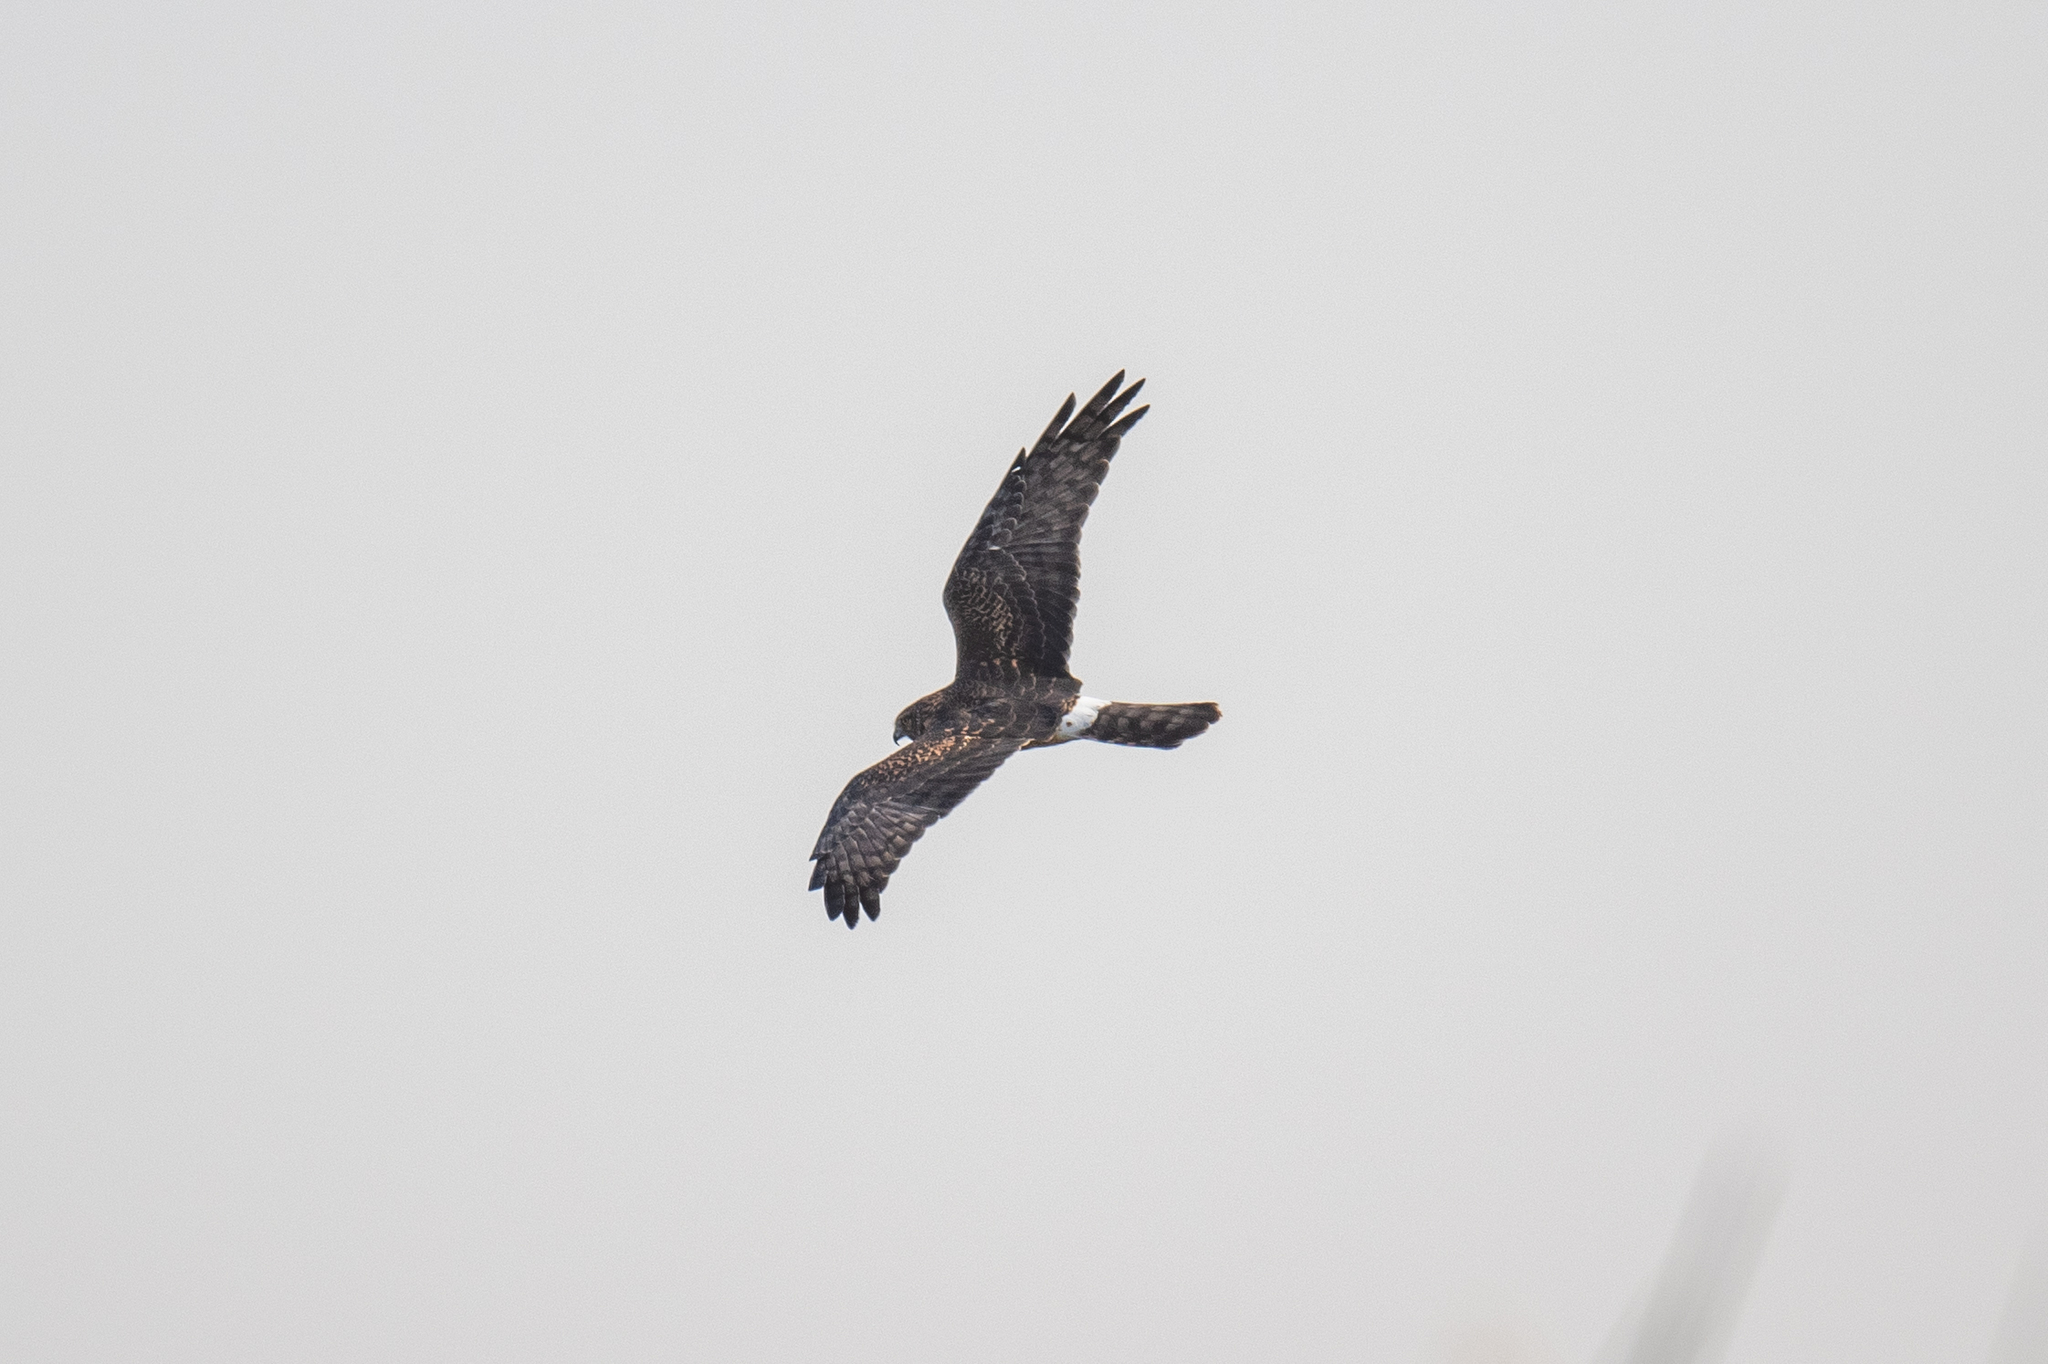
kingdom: Animalia
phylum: Chordata
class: Aves
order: Accipitriformes
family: Accipitridae
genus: Circus
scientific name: Circus cyaneus
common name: Hen harrier
